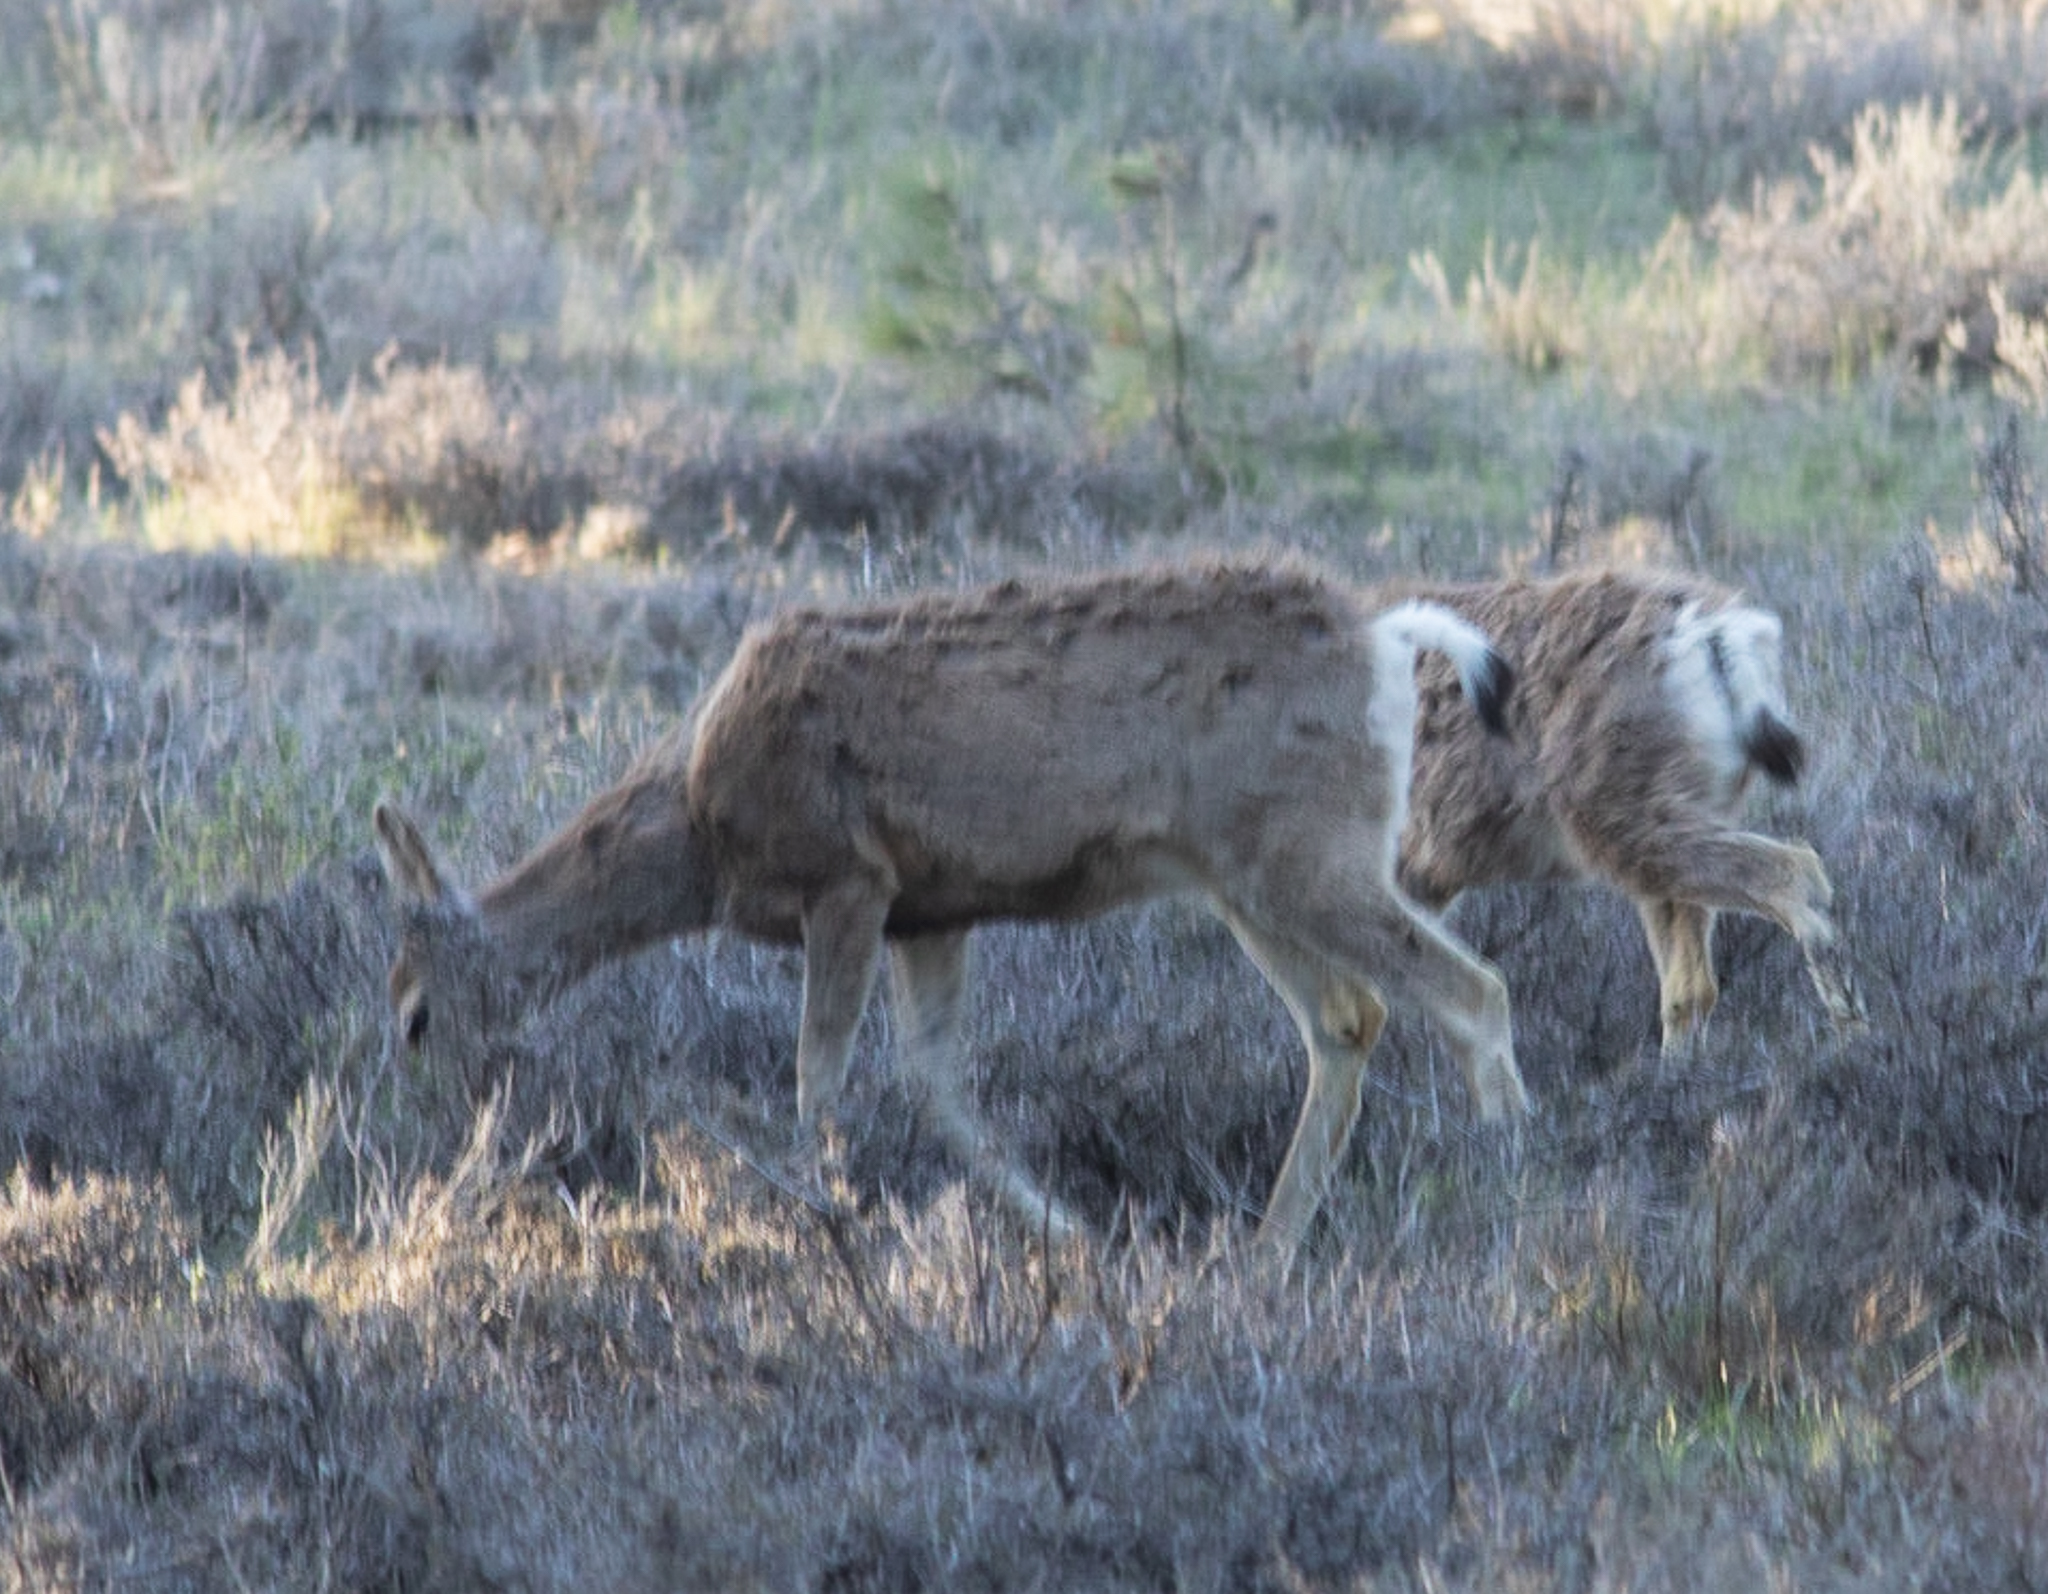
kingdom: Animalia
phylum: Chordata
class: Mammalia
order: Artiodactyla
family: Cervidae
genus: Odocoileus
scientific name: Odocoileus hemionus
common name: Mule deer
